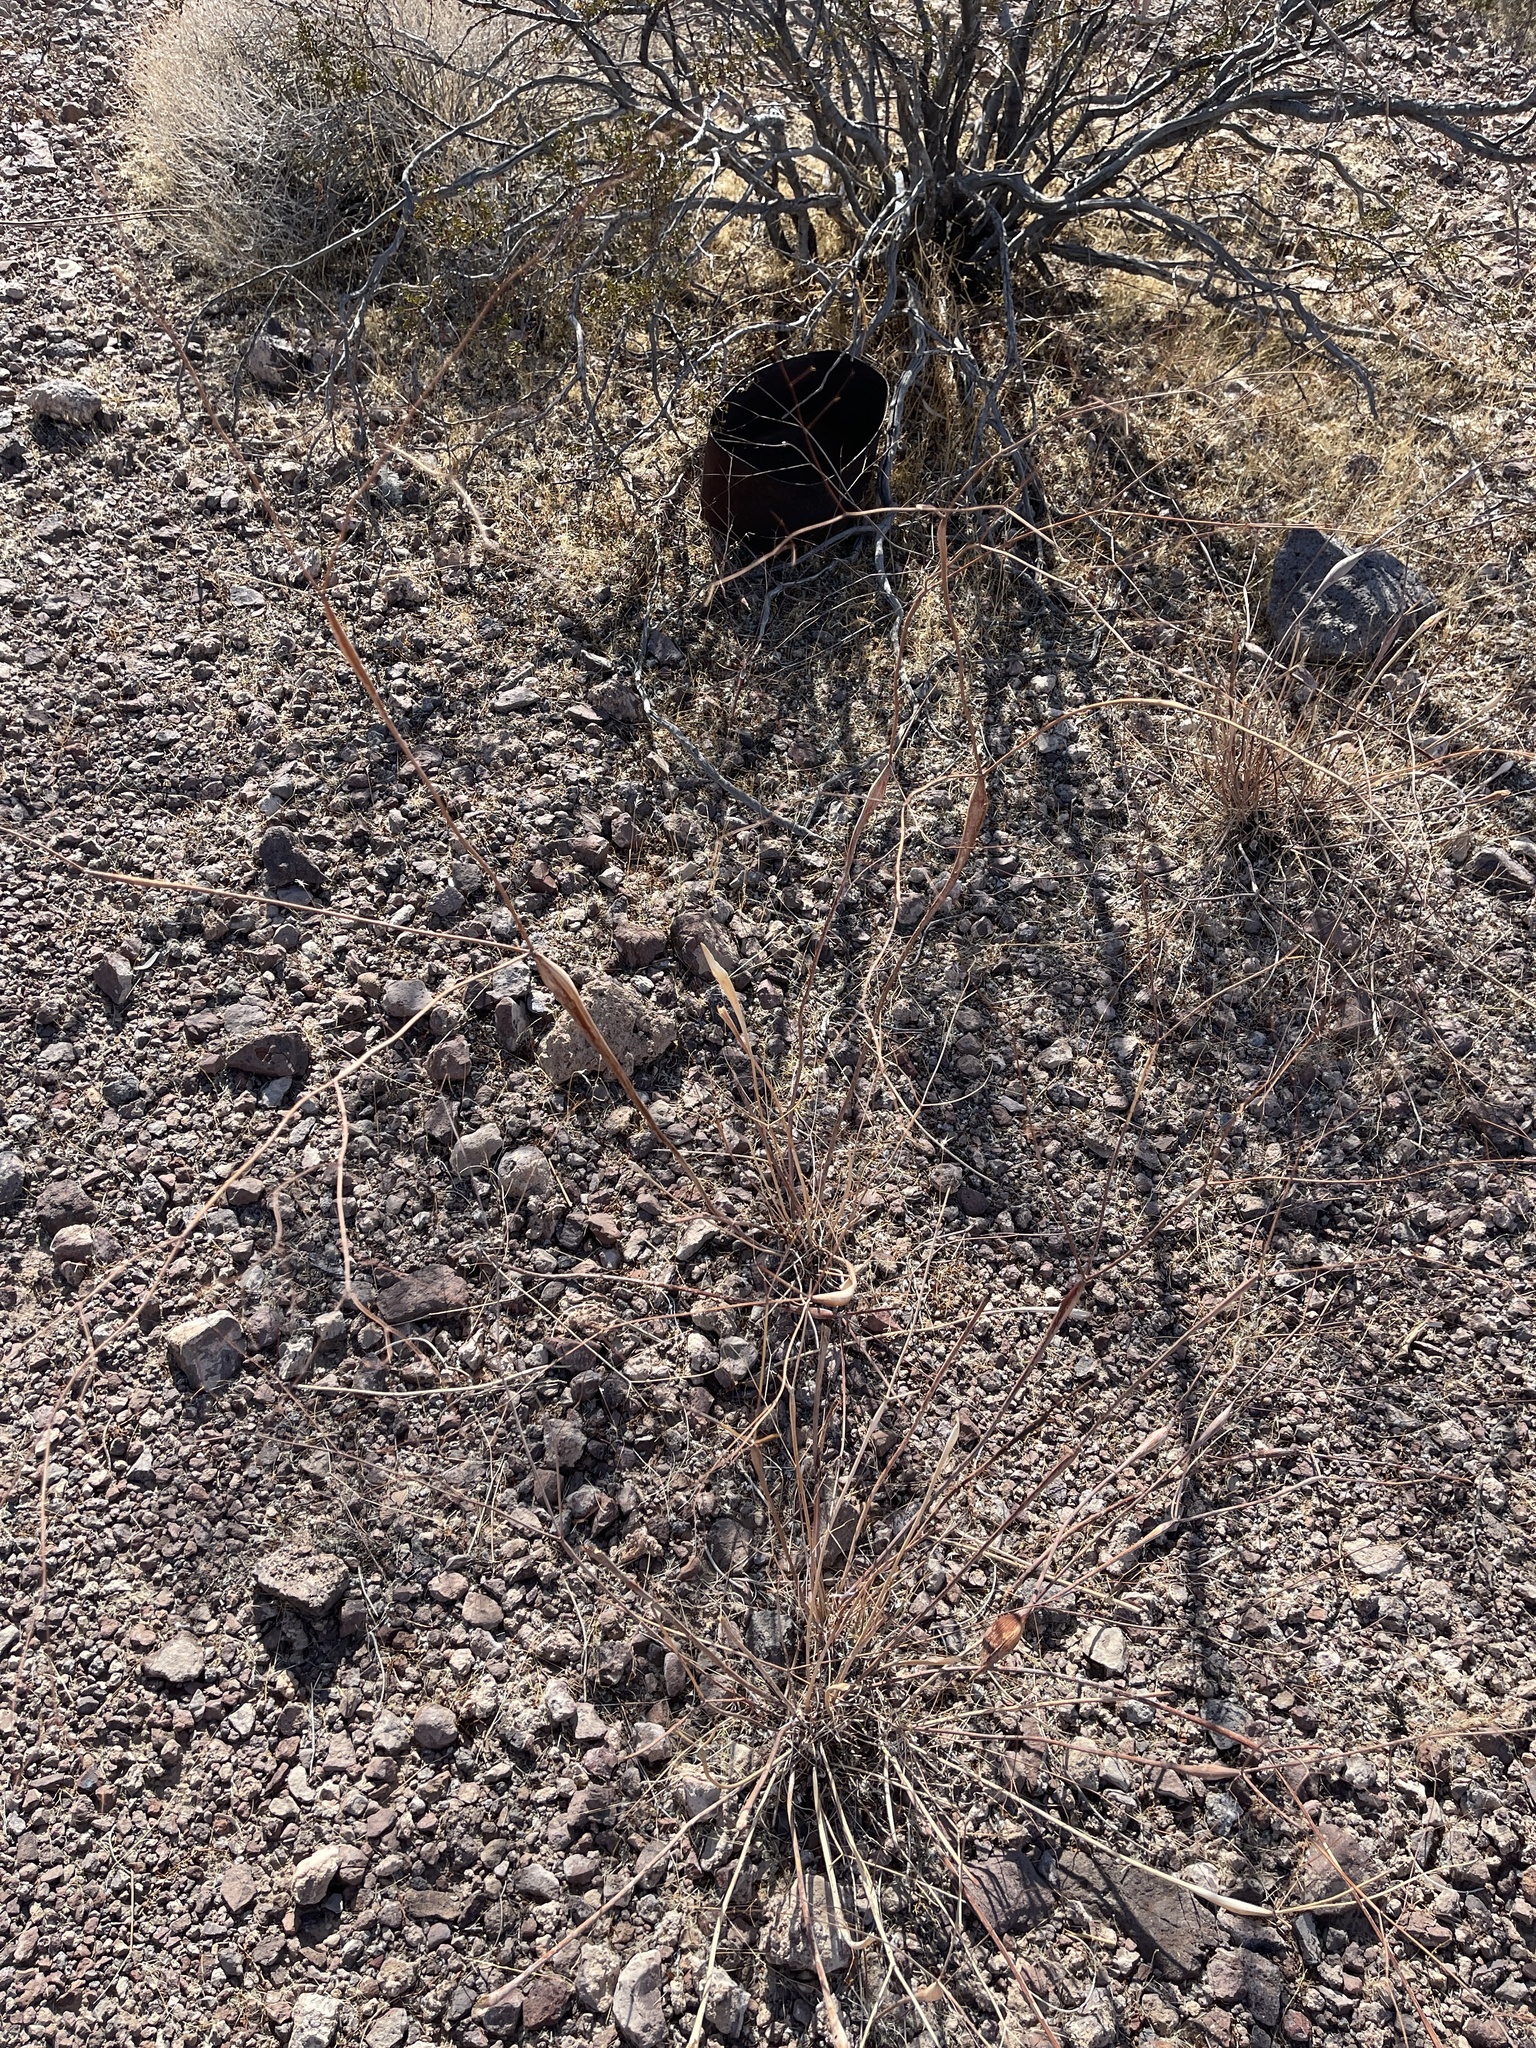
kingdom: Plantae
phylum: Tracheophyta
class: Magnoliopsida
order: Caryophyllales
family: Polygonaceae
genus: Eriogonum
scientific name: Eriogonum inflatum
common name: Desert trumpet
